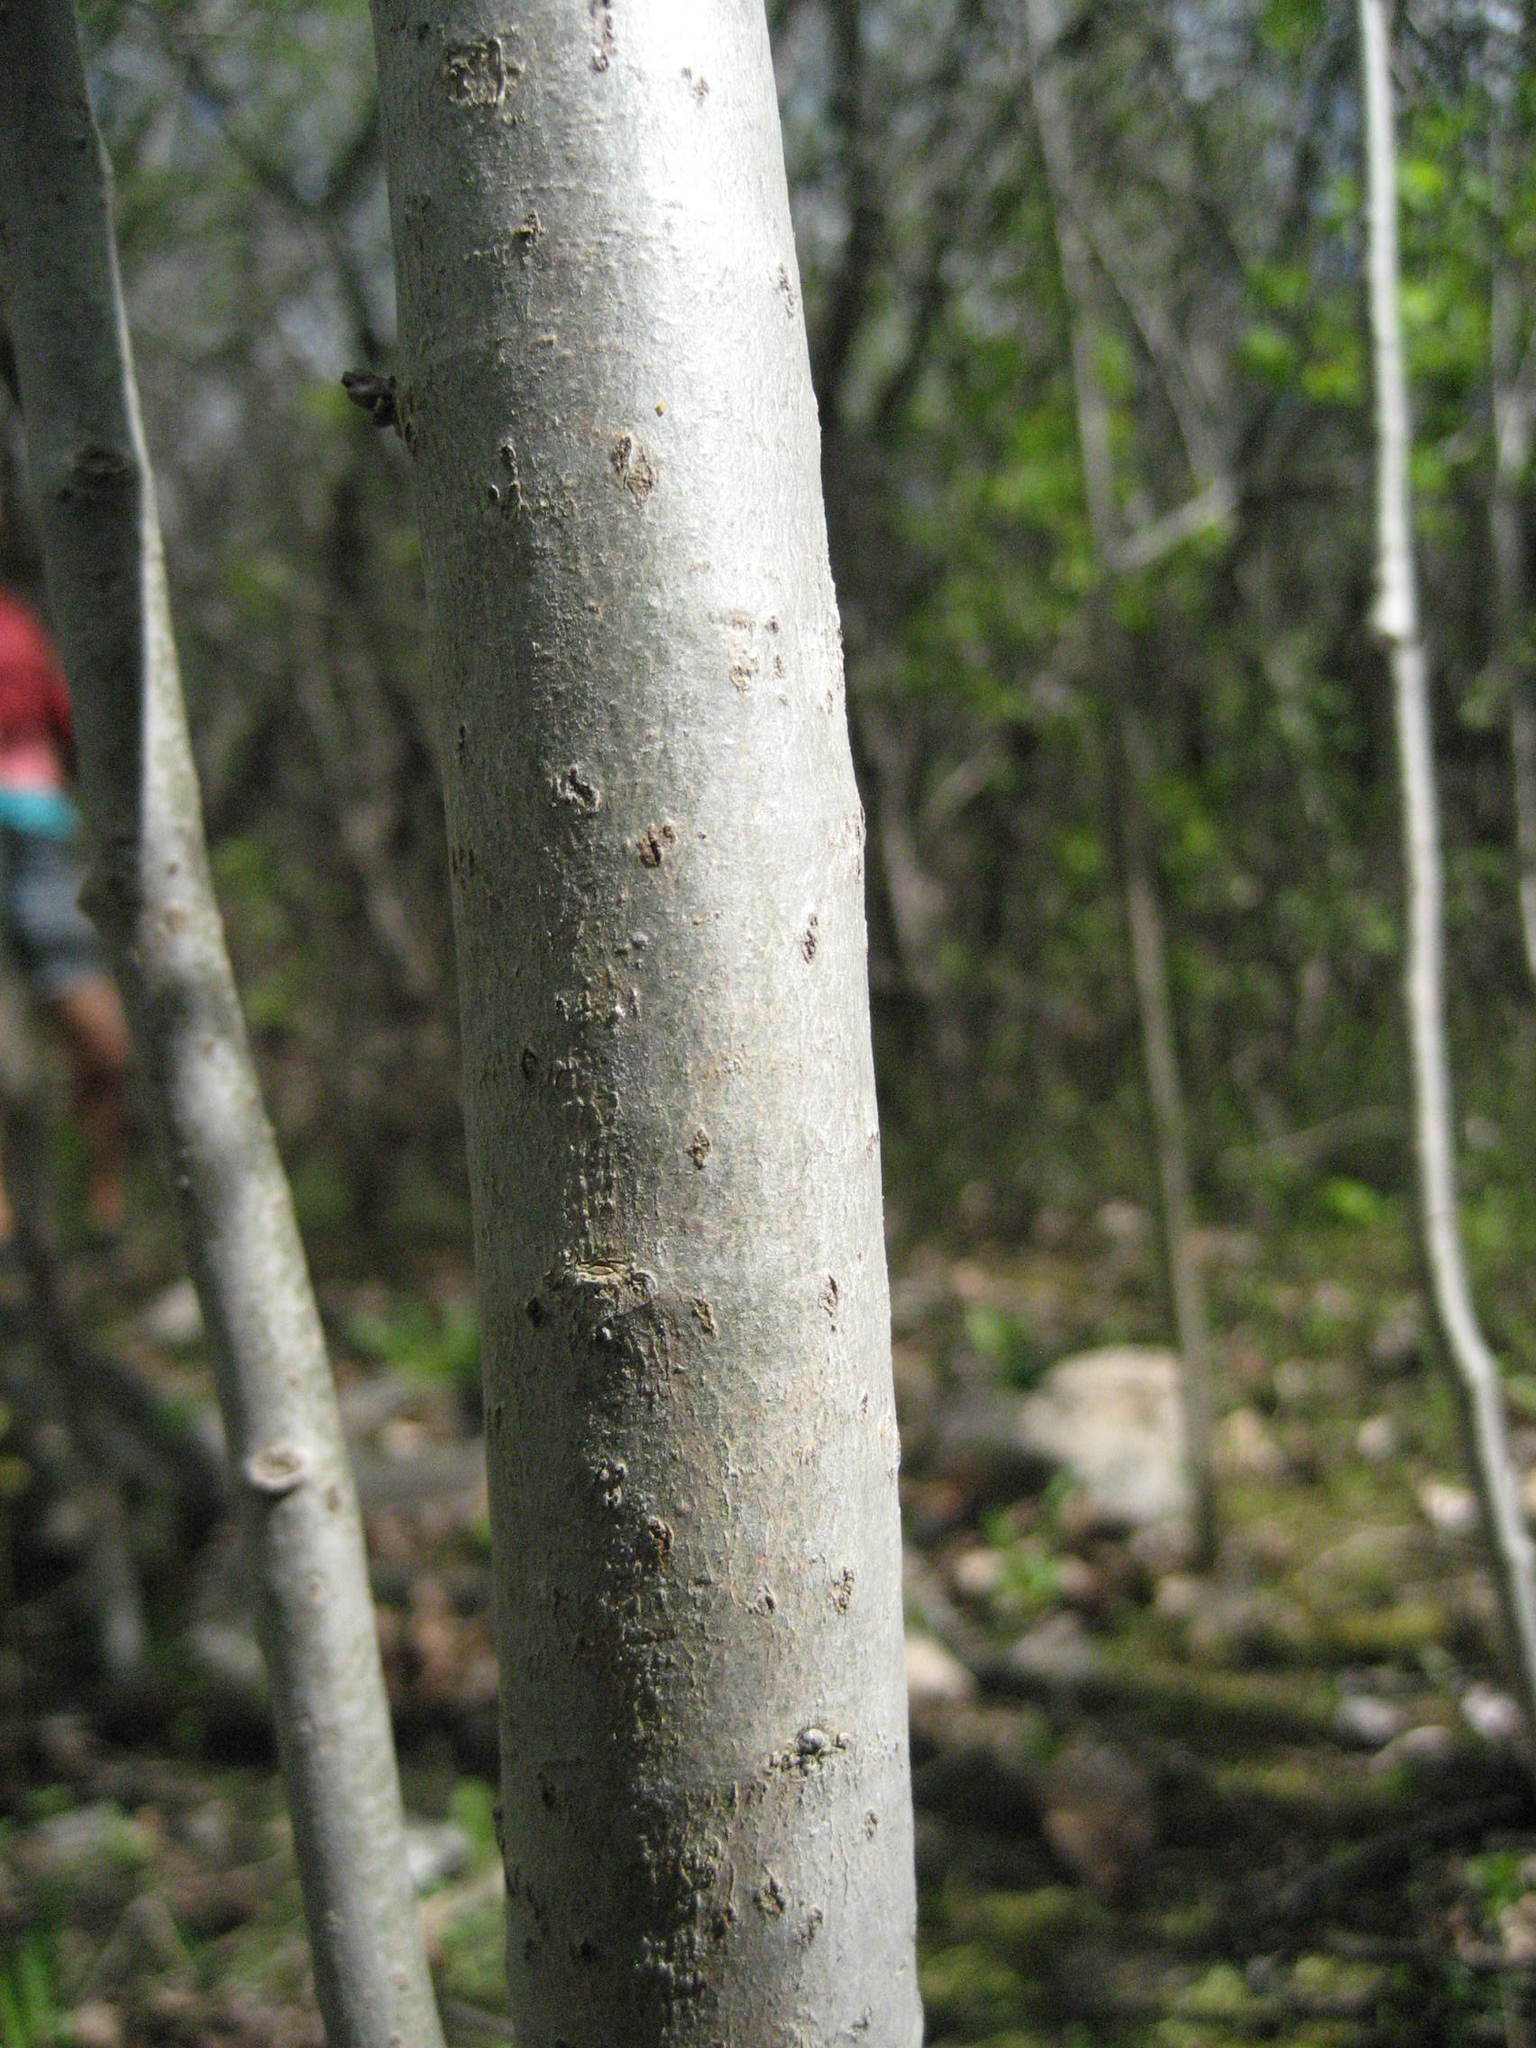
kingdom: Plantae
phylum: Tracheophyta
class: Magnoliopsida
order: Malpighiales
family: Salicaceae
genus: Populus
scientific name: Populus tremuloides
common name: Quaking aspen
